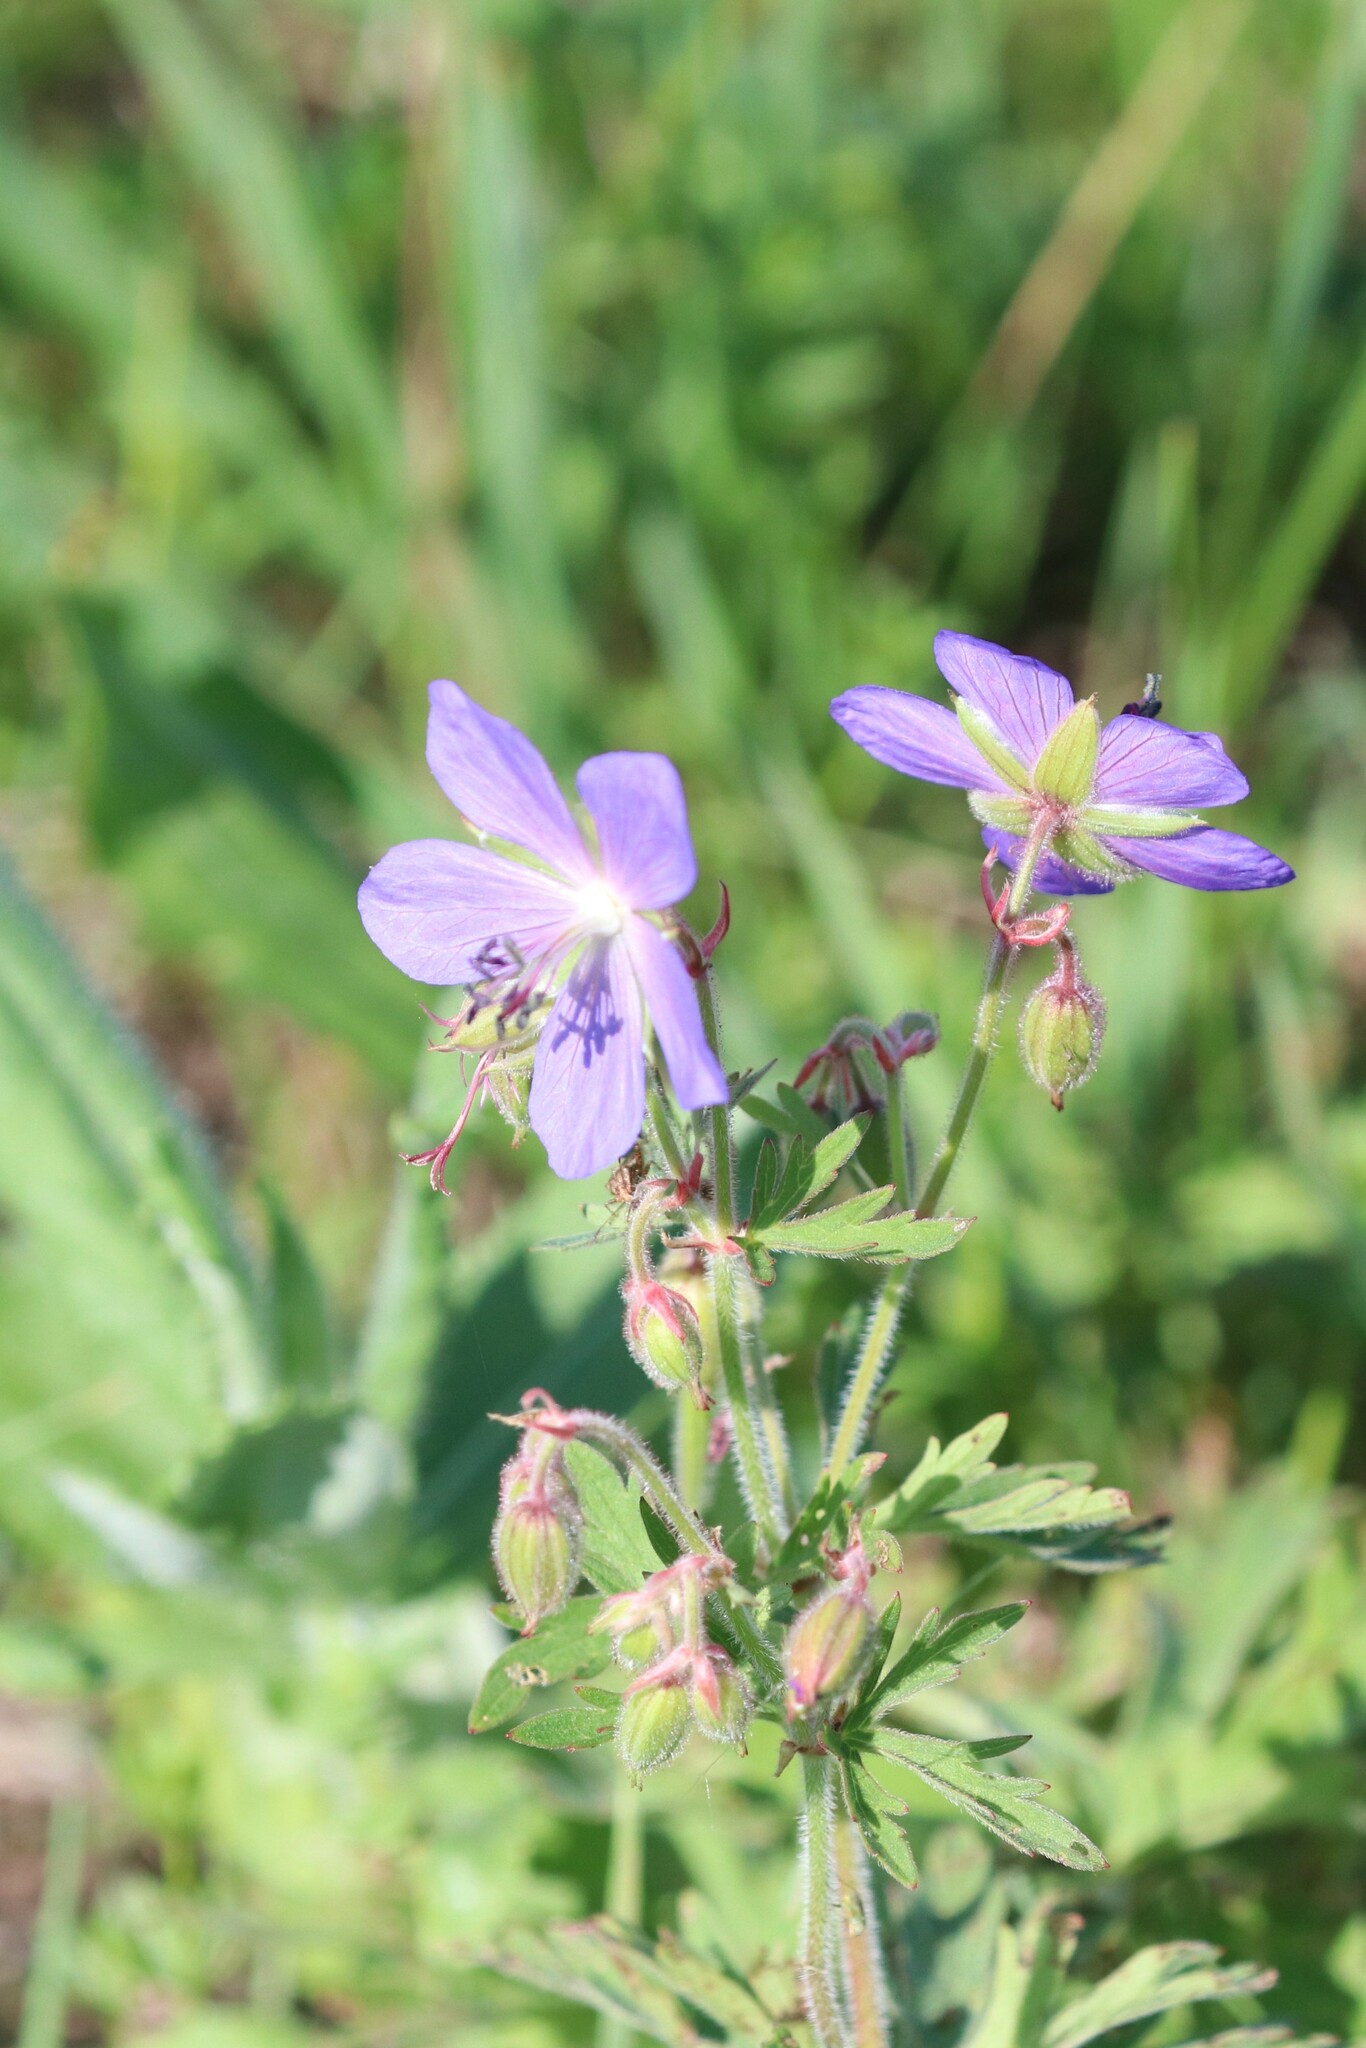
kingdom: Plantae
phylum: Tracheophyta
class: Magnoliopsida
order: Geraniales
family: Geraniaceae
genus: Geranium
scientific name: Geranium pratense
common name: Meadow crane's-bill
